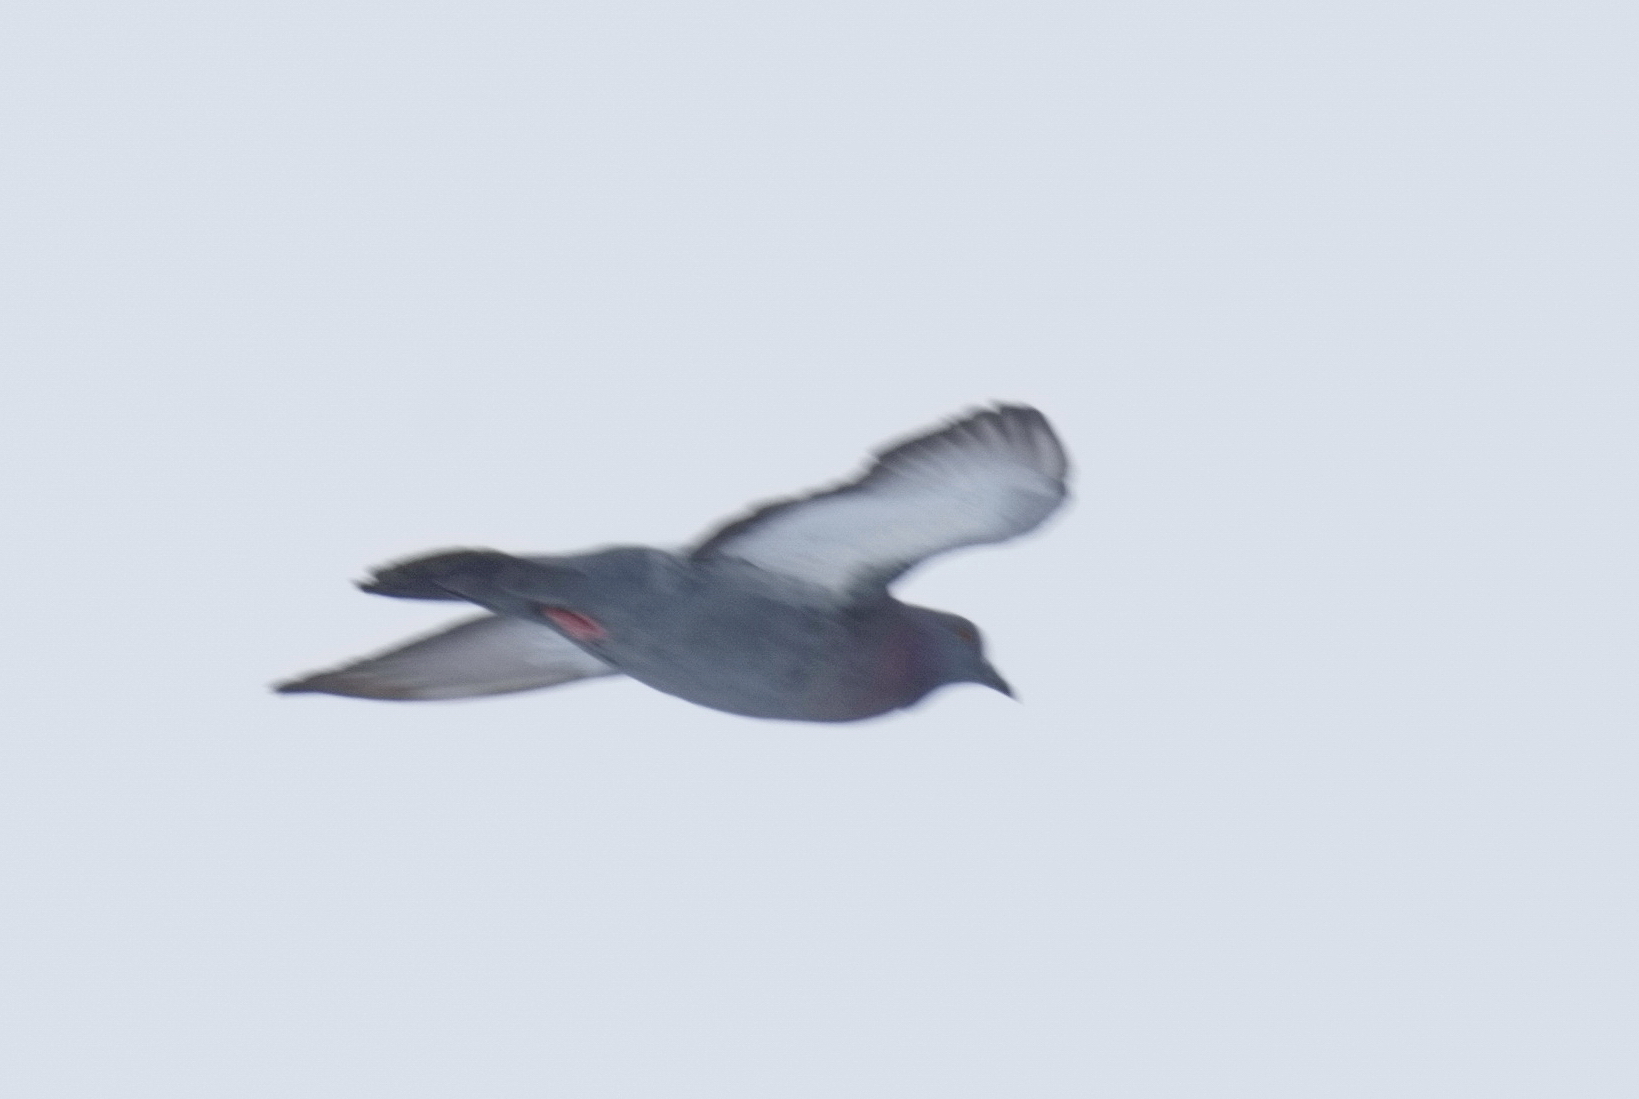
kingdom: Animalia
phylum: Chordata
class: Aves
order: Columbiformes
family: Columbidae
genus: Columba
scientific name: Columba livia
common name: Rock pigeon
